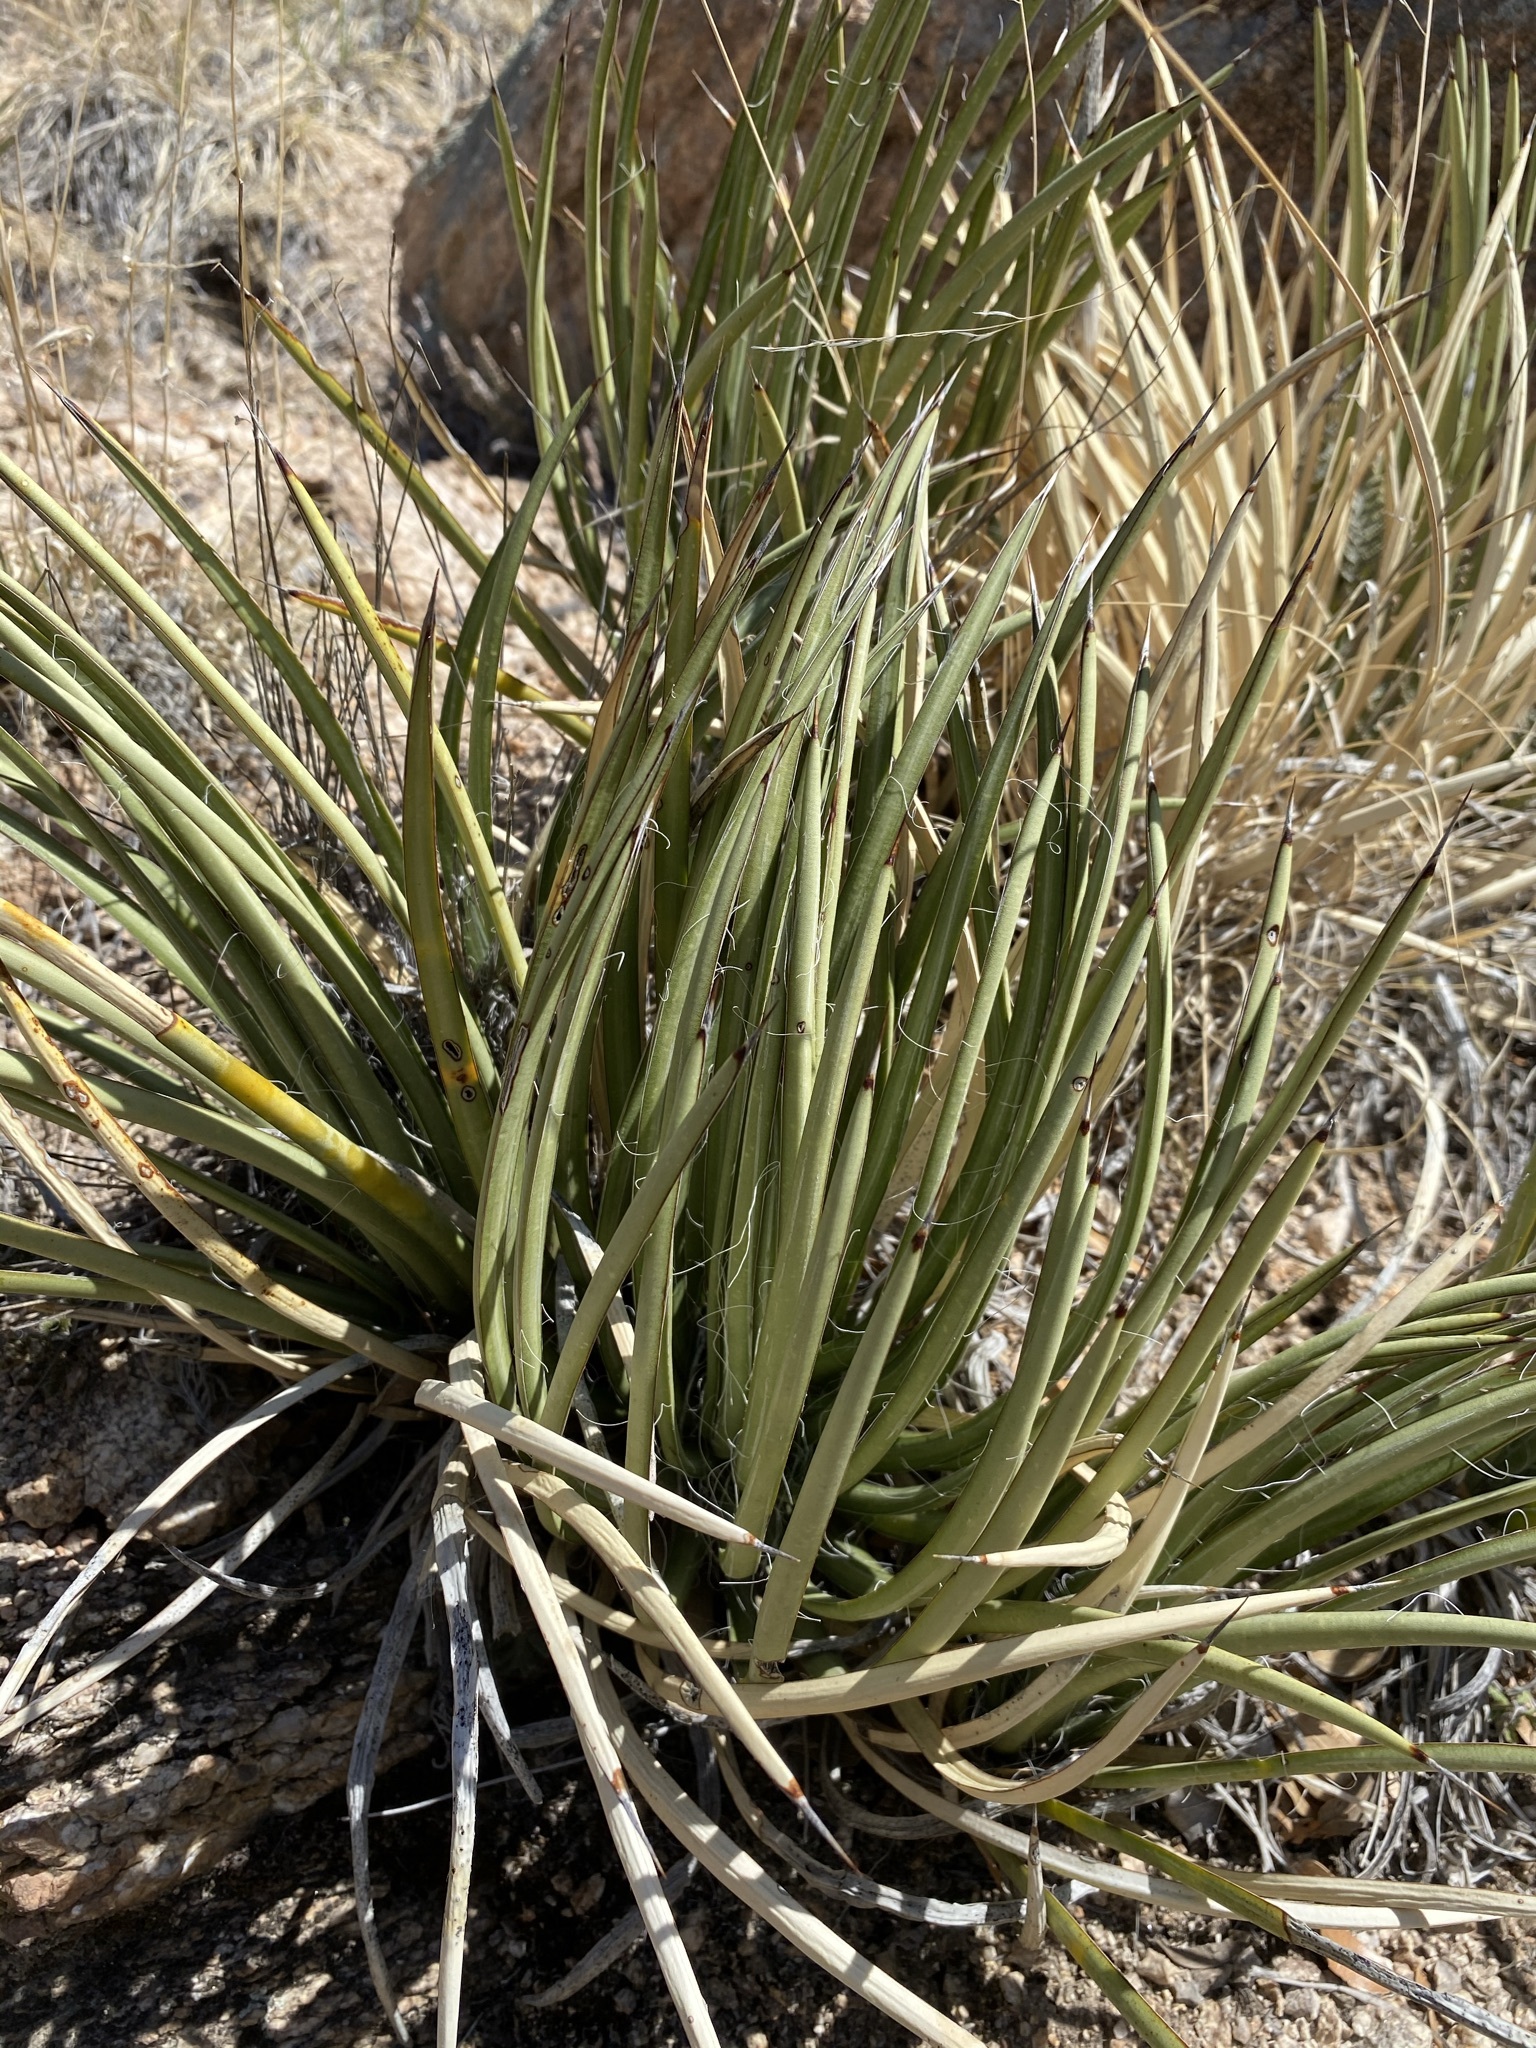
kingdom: Plantae
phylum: Tracheophyta
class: Liliopsida
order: Asparagales
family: Asparagaceae
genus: Agave
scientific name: Agave schottii
